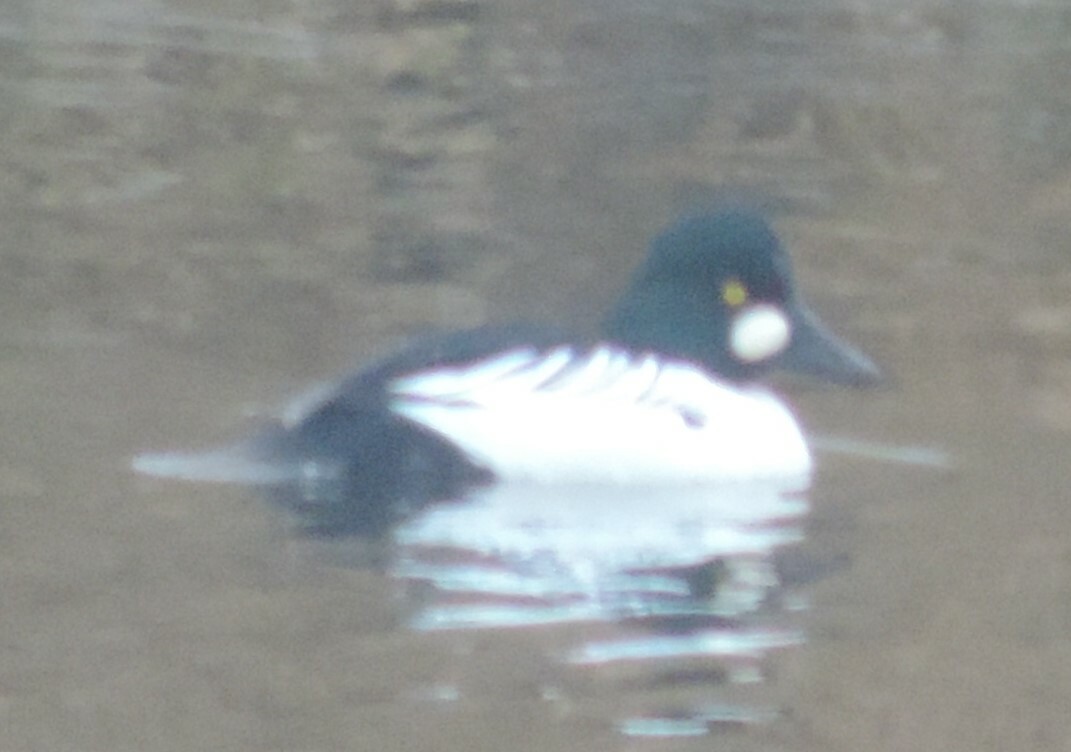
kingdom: Animalia
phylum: Chordata
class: Aves
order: Anseriformes
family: Anatidae
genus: Bucephala
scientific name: Bucephala clangula
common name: Common goldeneye
